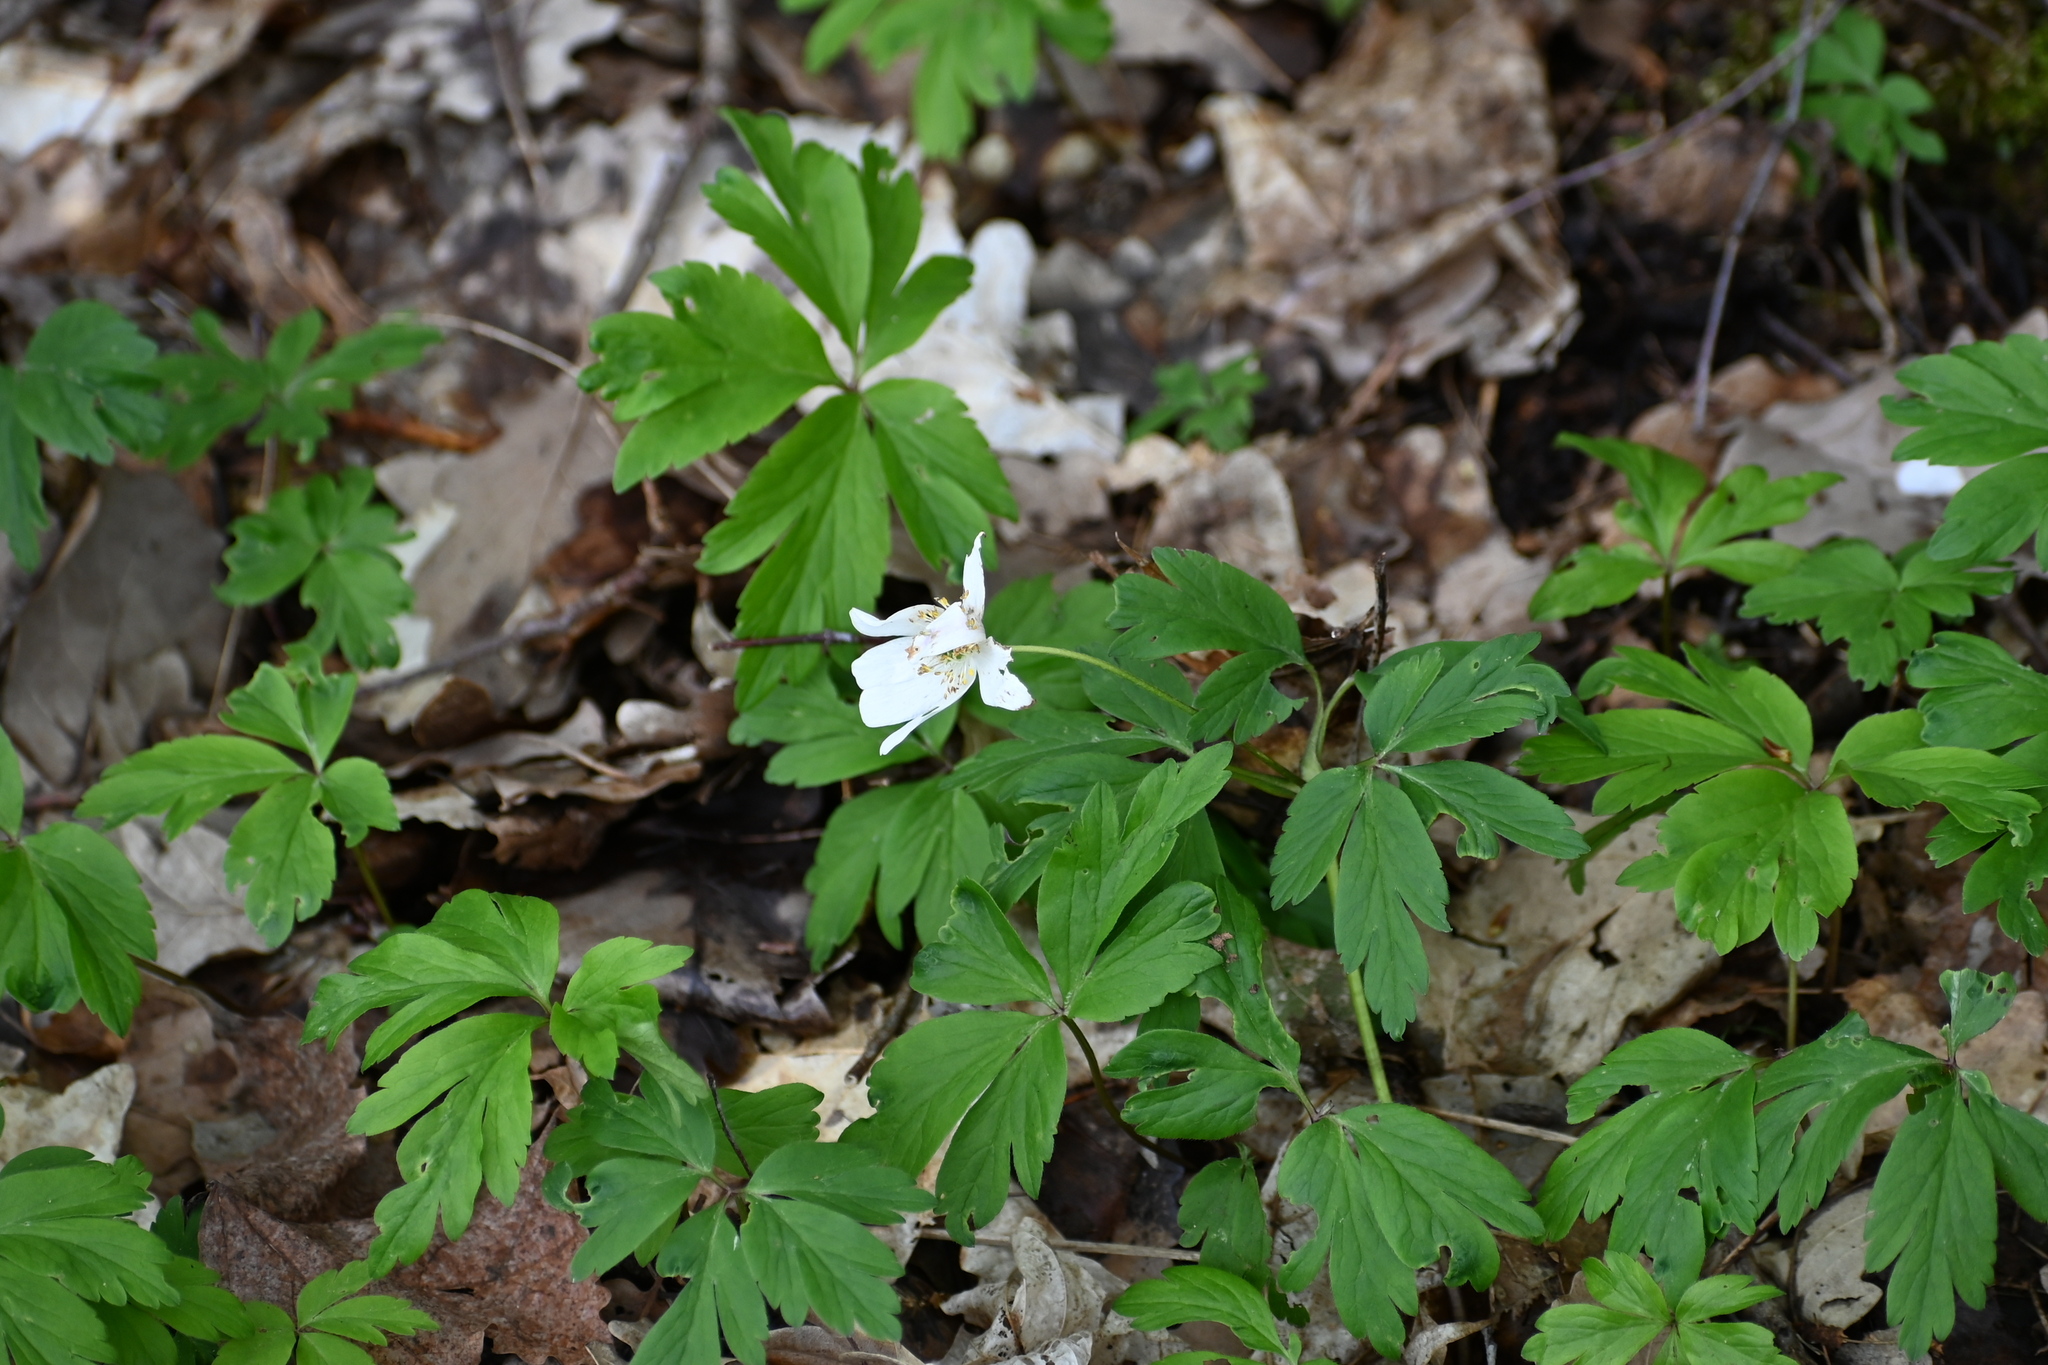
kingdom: Plantae
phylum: Tracheophyta
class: Magnoliopsida
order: Ranunculales
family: Ranunculaceae
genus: Anemone
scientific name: Anemone nemorosa
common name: Wood anemone
